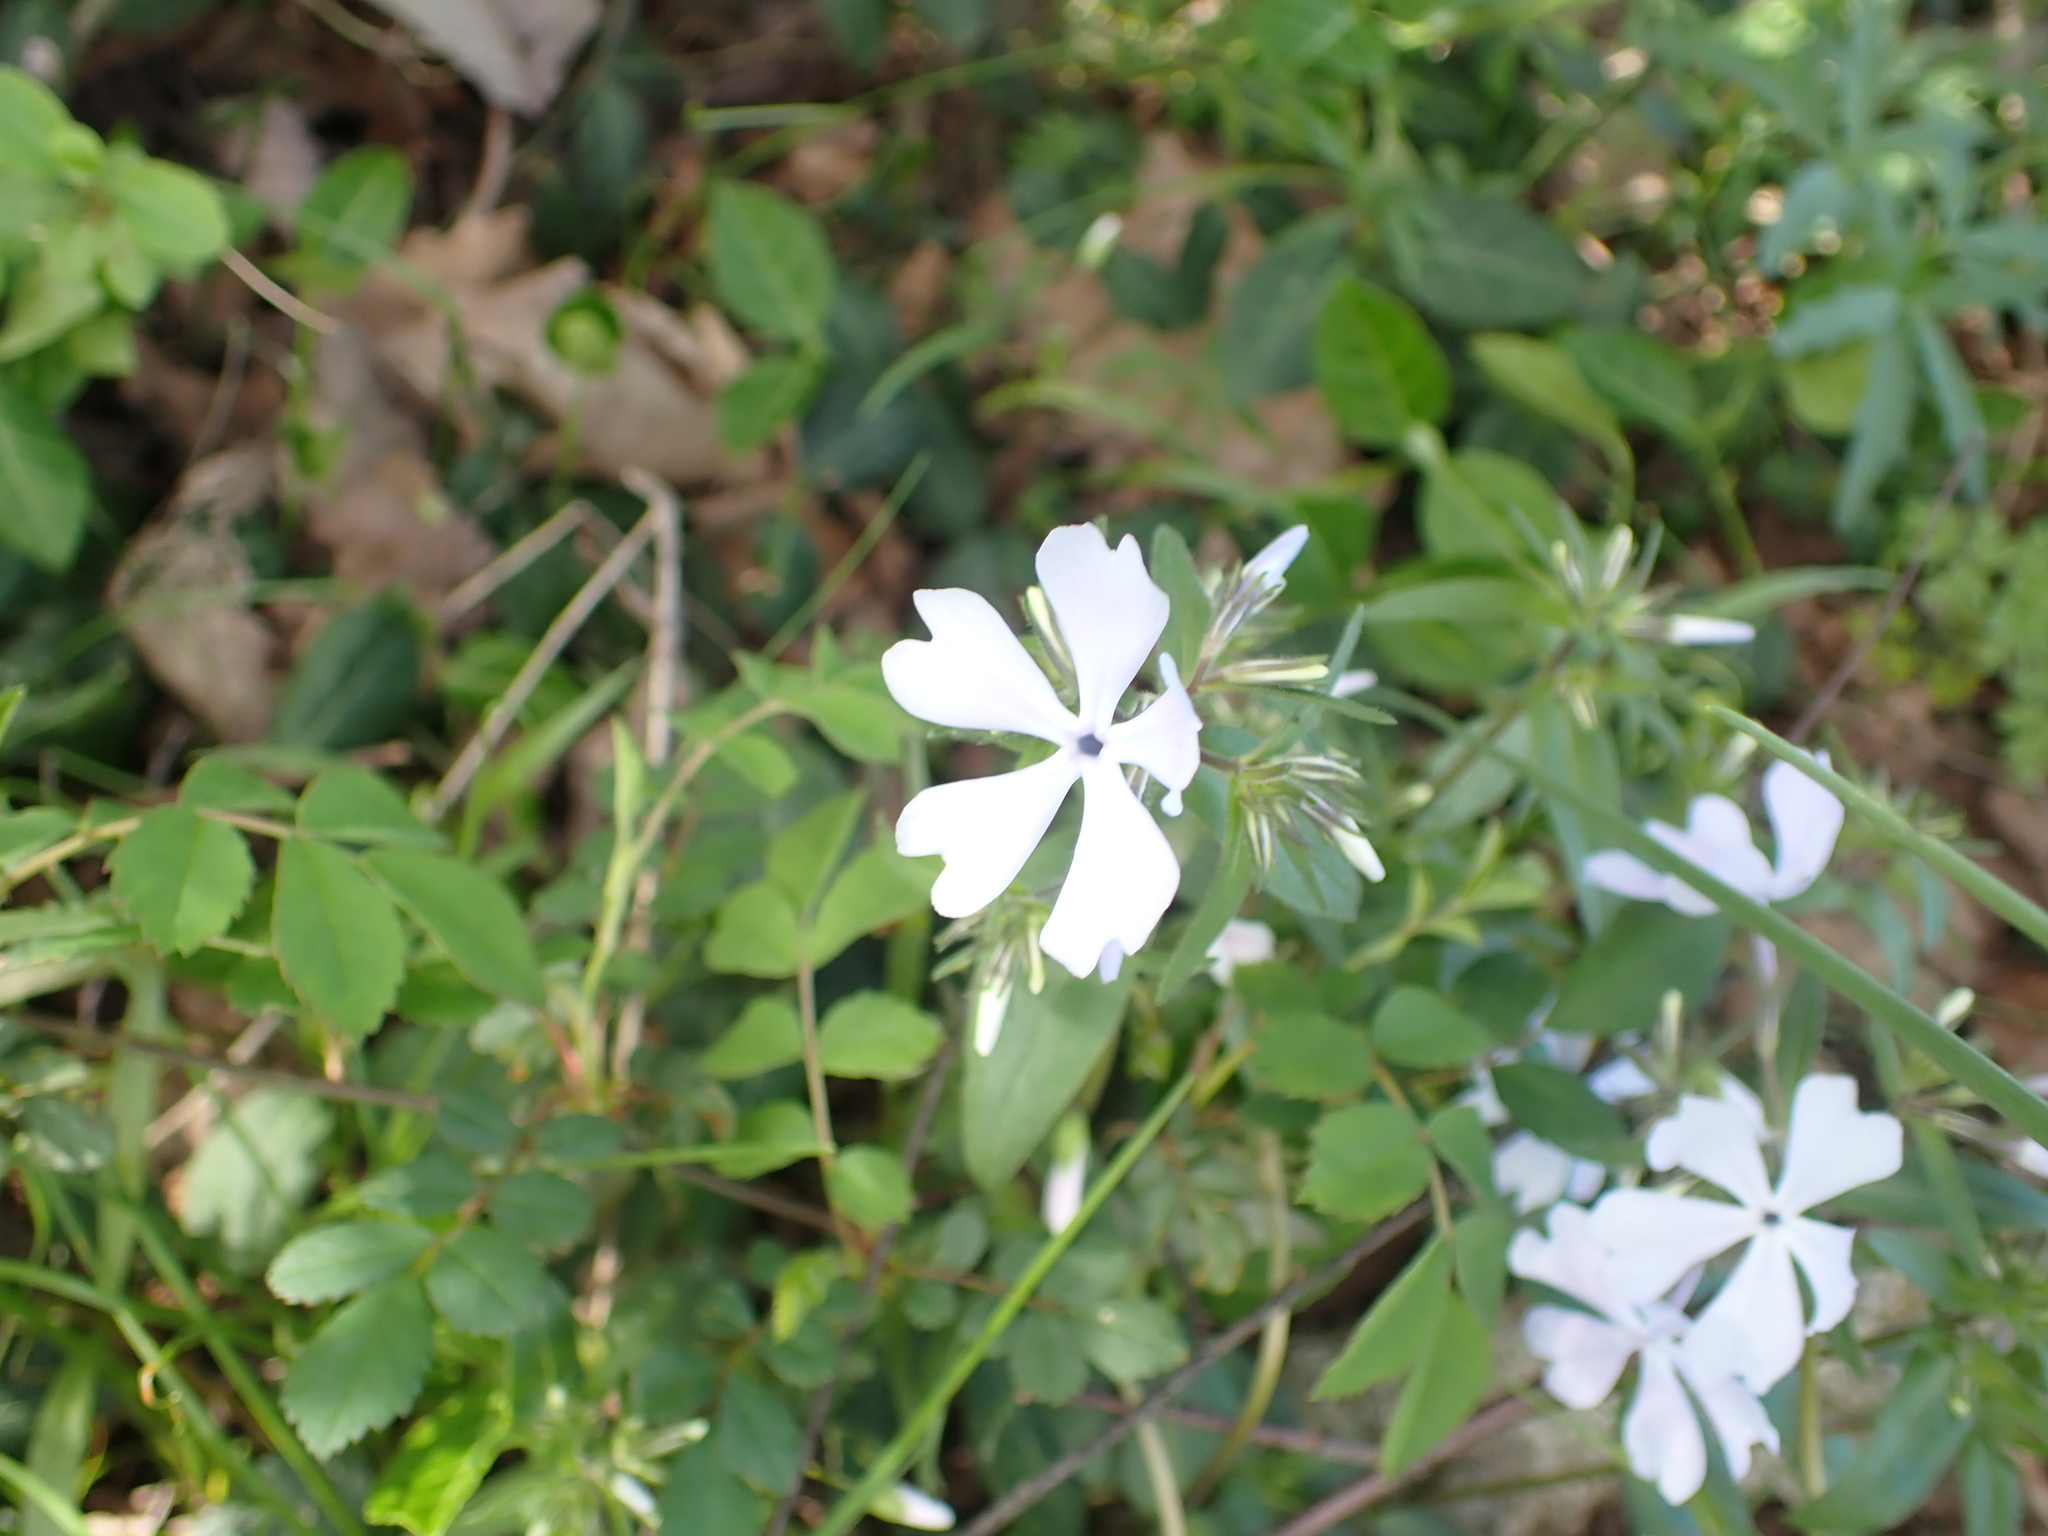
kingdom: Plantae
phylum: Tracheophyta
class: Magnoliopsida
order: Ericales
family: Polemoniaceae
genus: Phlox
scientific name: Phlox divaricata
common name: Blue phlox
